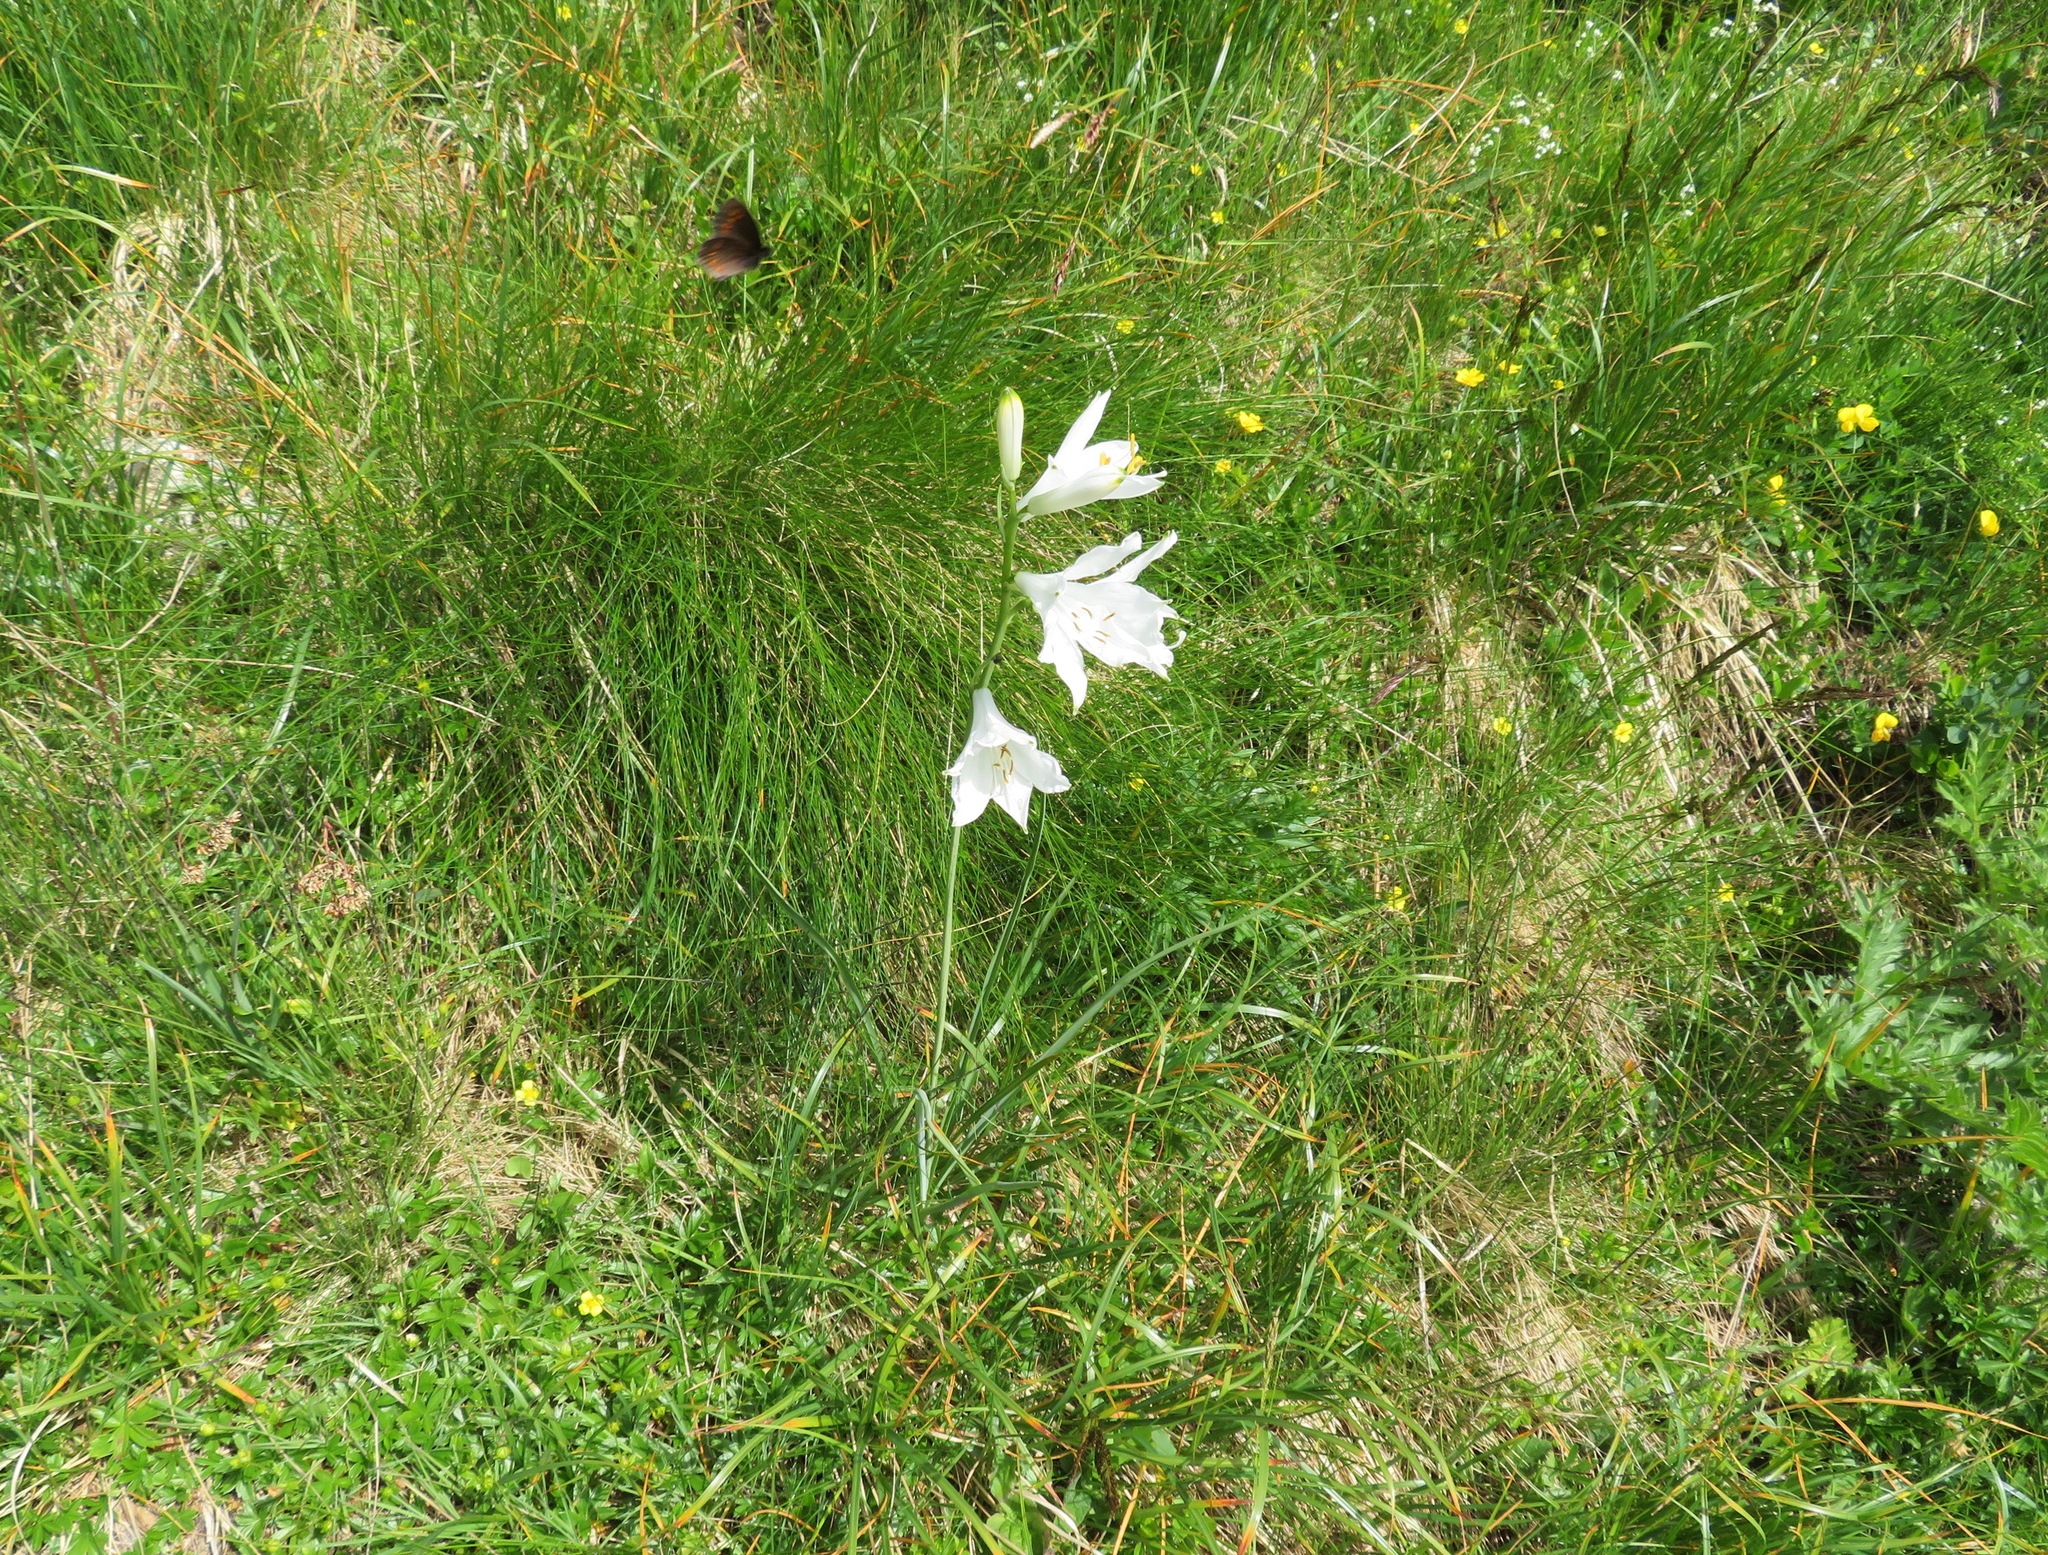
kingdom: Plantae
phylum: Tracheophyta
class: Liliopsida
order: Asparagales
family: Asparagaceae
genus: Paradisea
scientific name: Paradisea liliastrum
